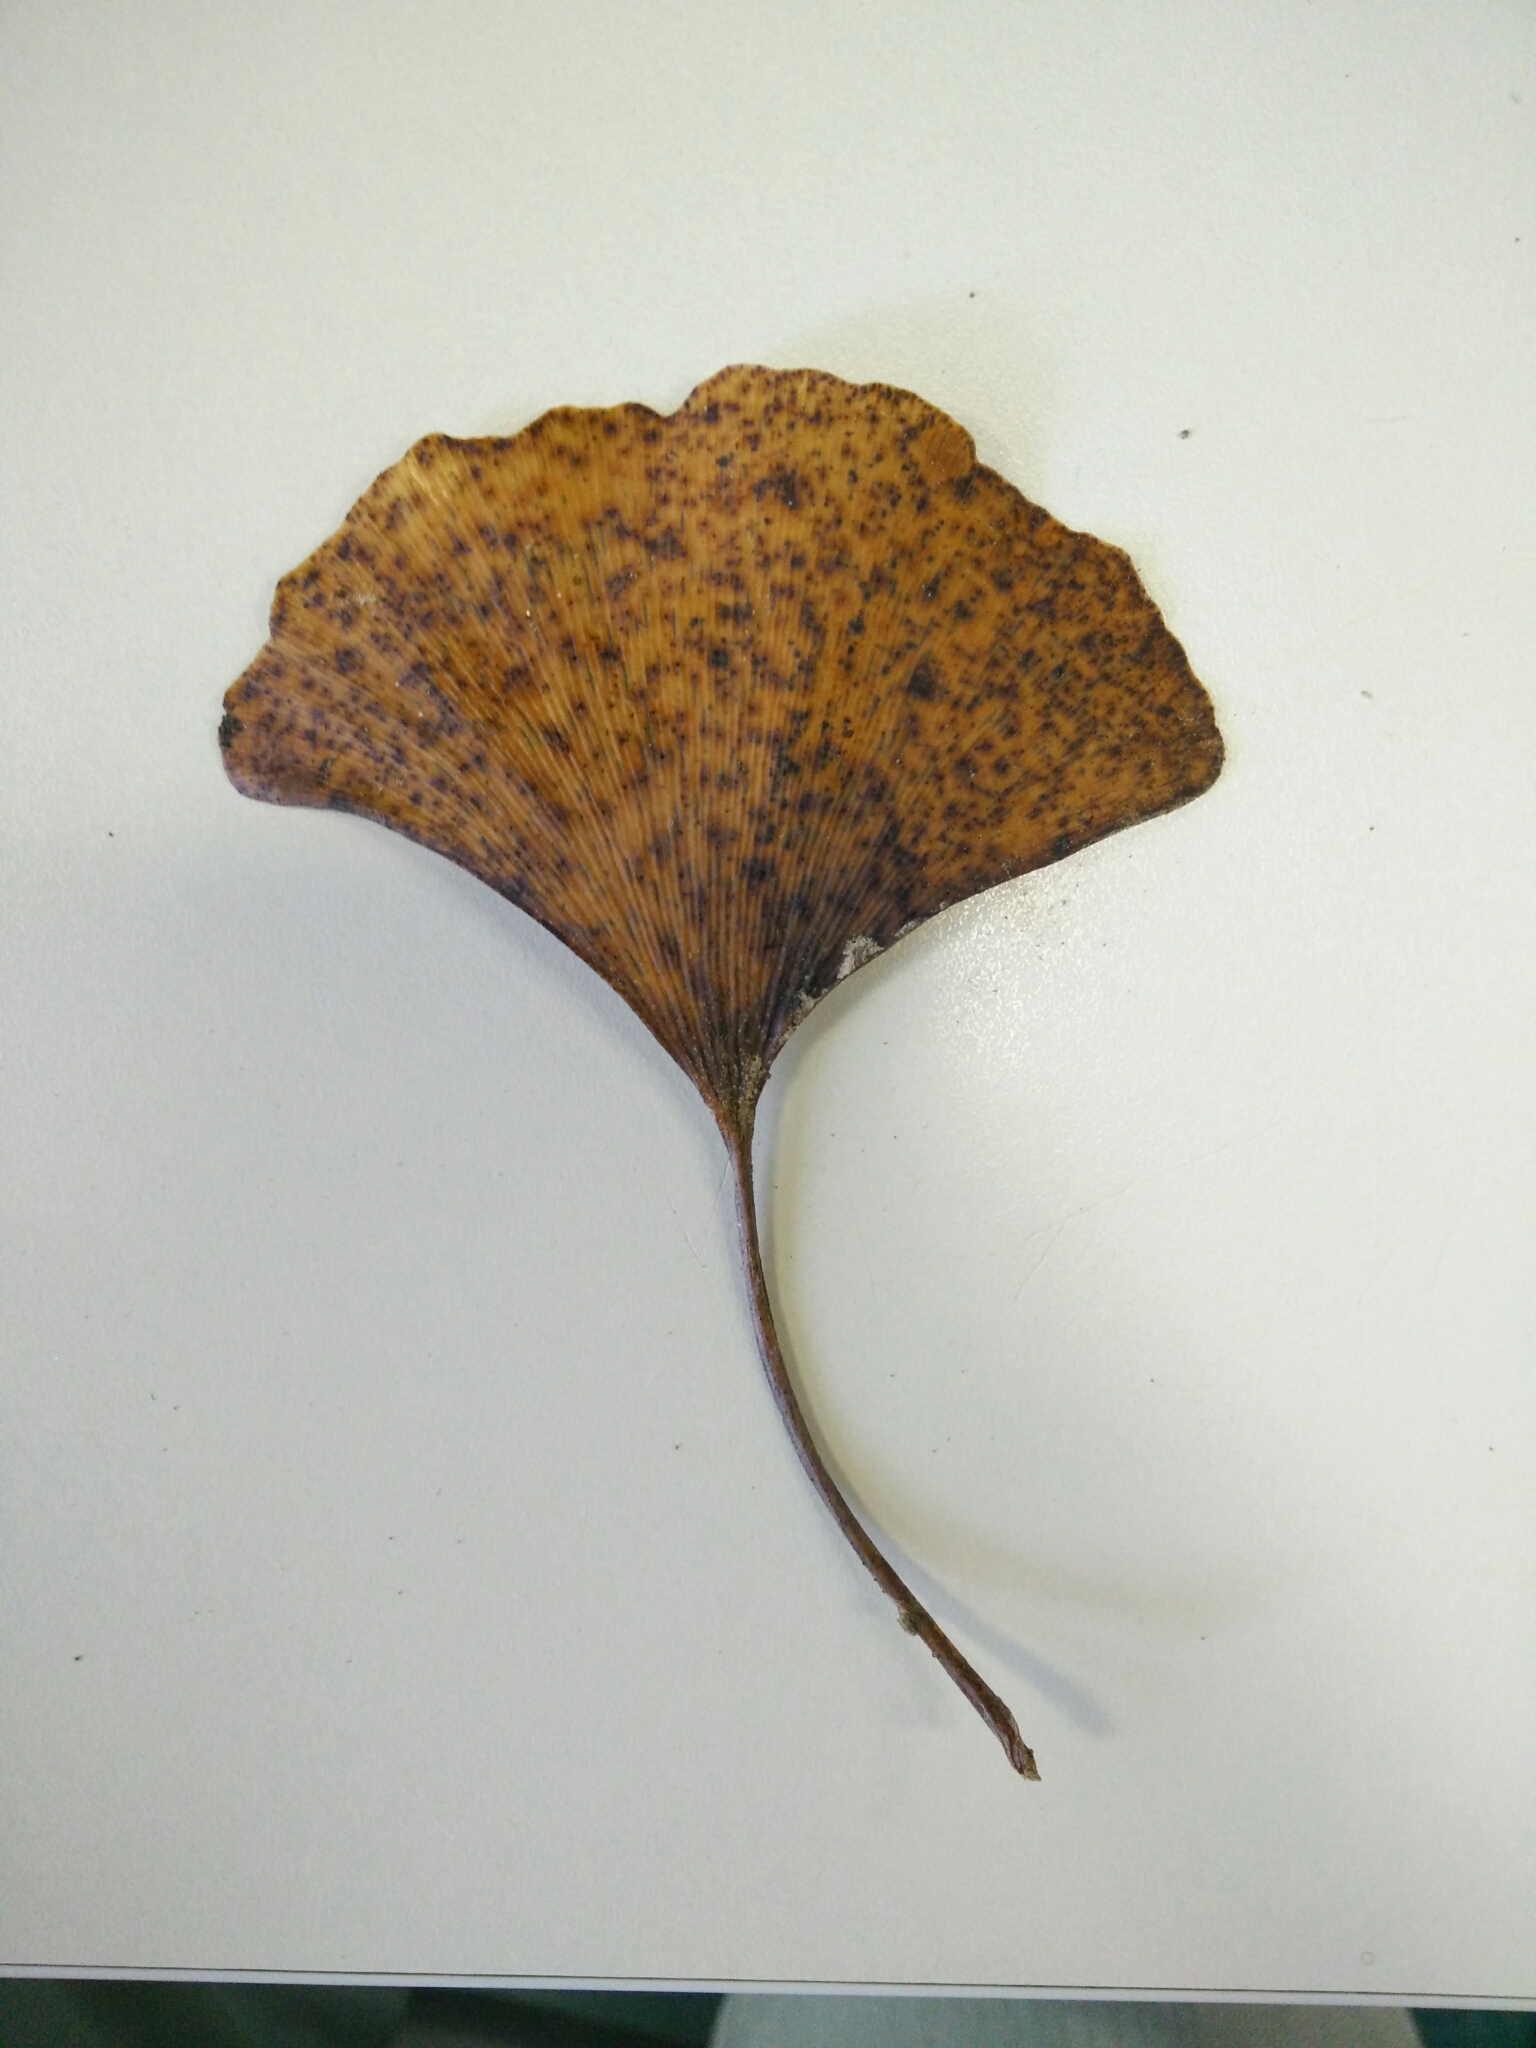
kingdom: Fungi
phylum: Basidiomycota
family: Bartheletiaceae
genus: Bartheletia
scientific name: Bartheletia paradoxa
